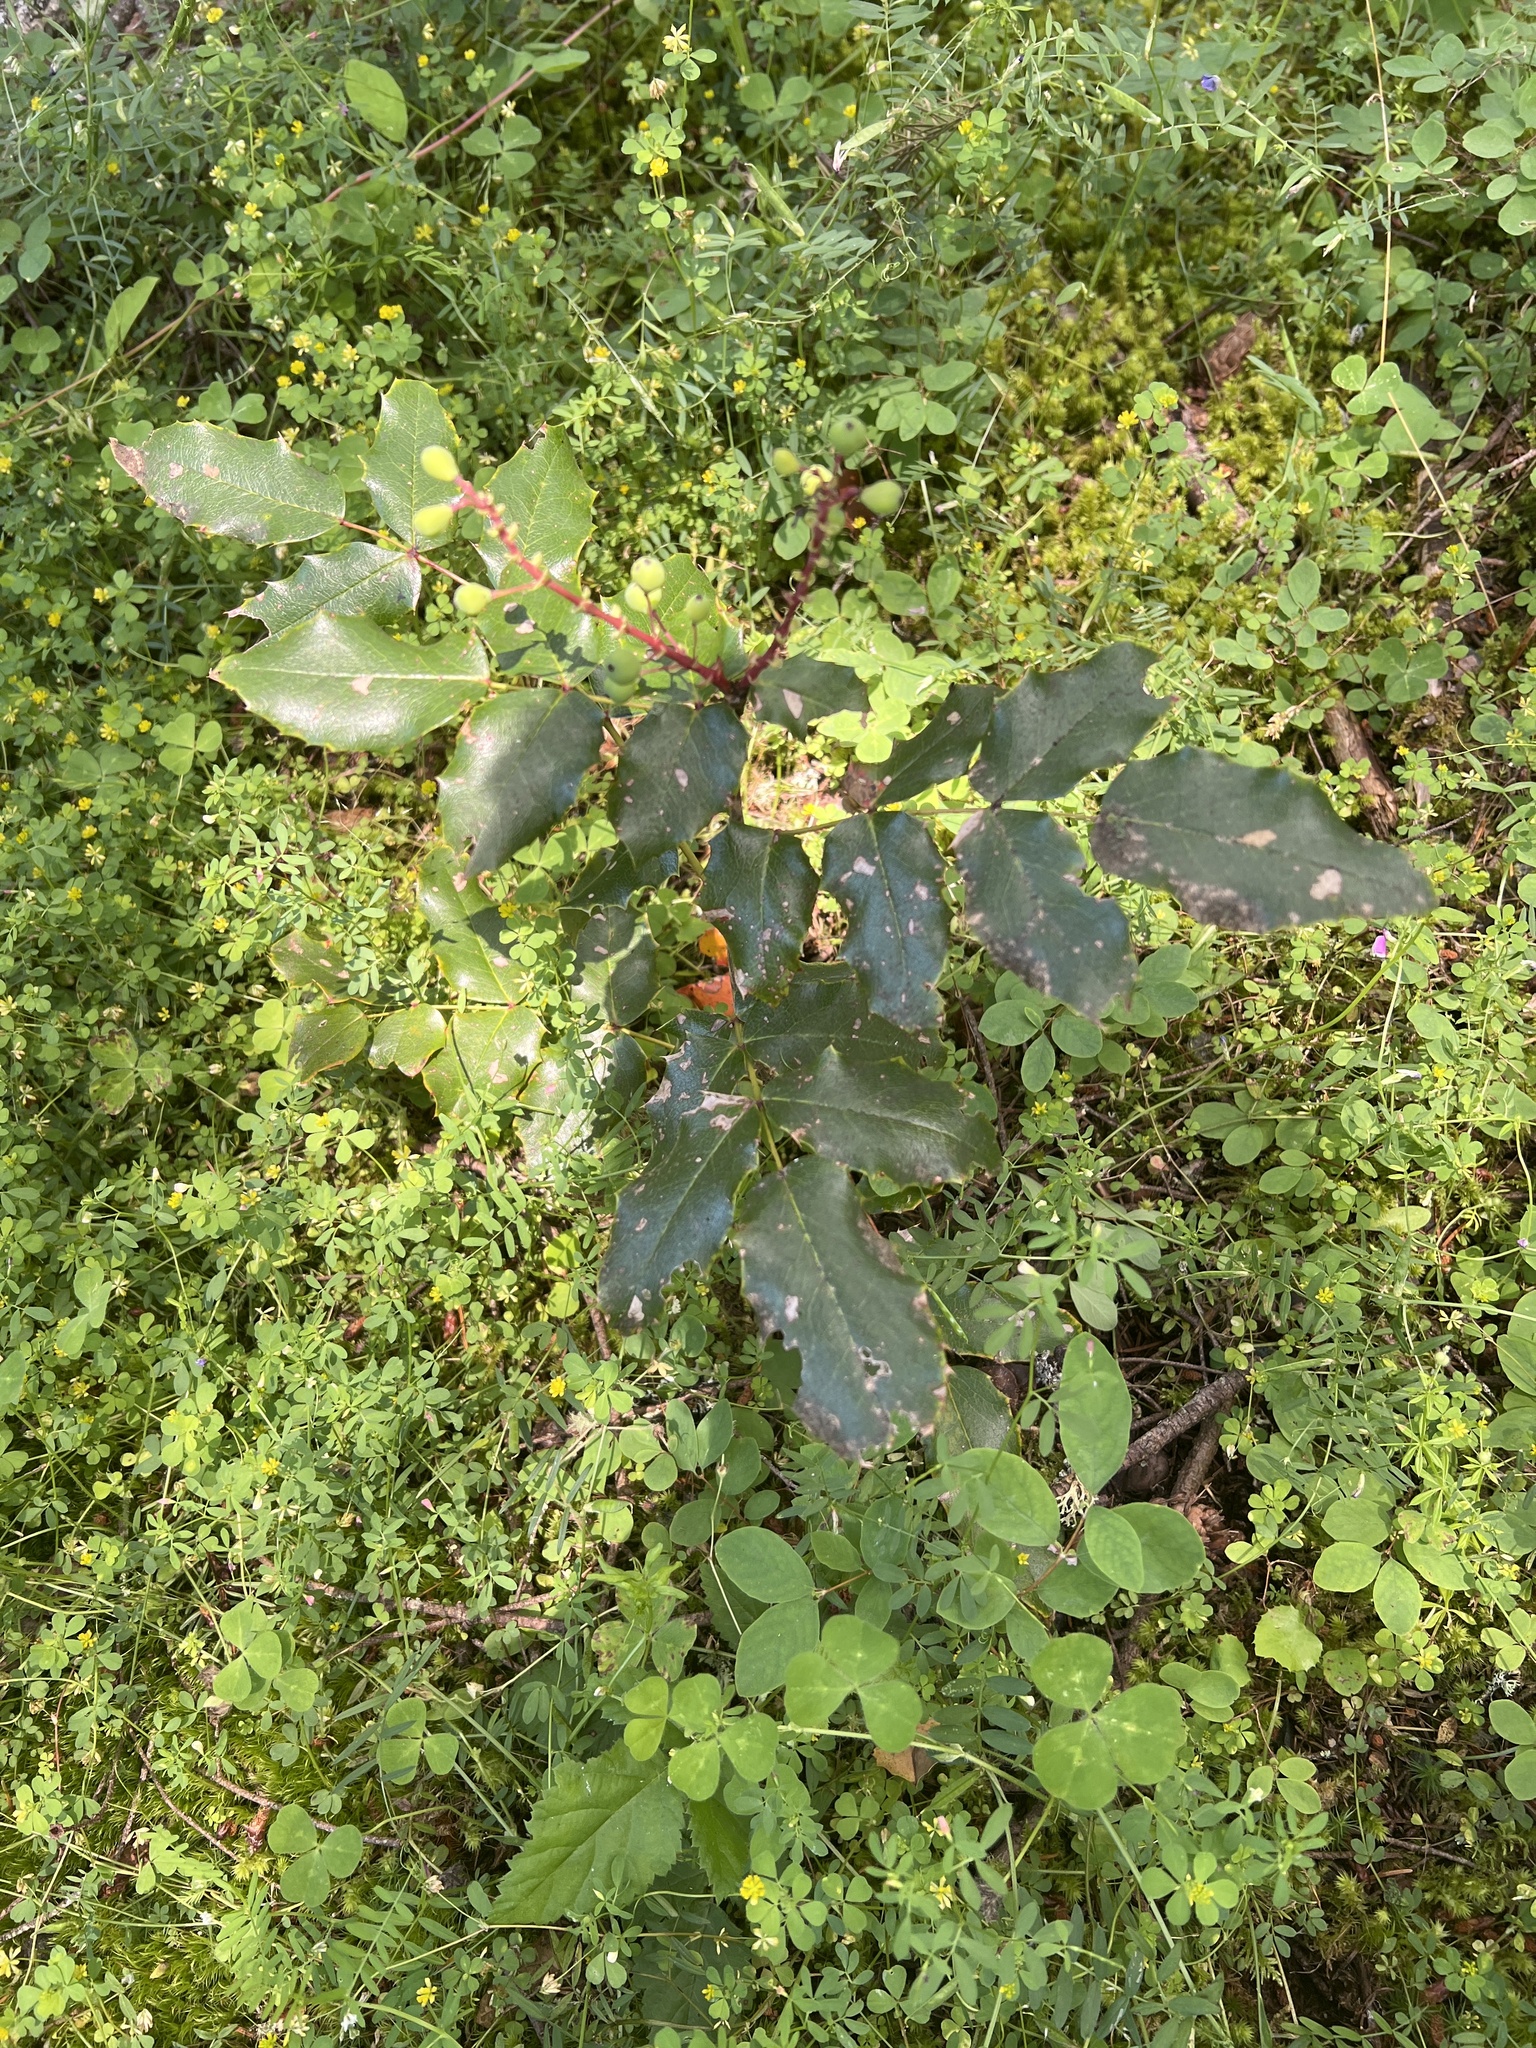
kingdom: Plantae
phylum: Tracheophyta
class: Magnoliopsida
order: Ranunculales
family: Berberidaceae
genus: Mahonia
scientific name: Mahonia aquifolium
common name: Oregon-grape
